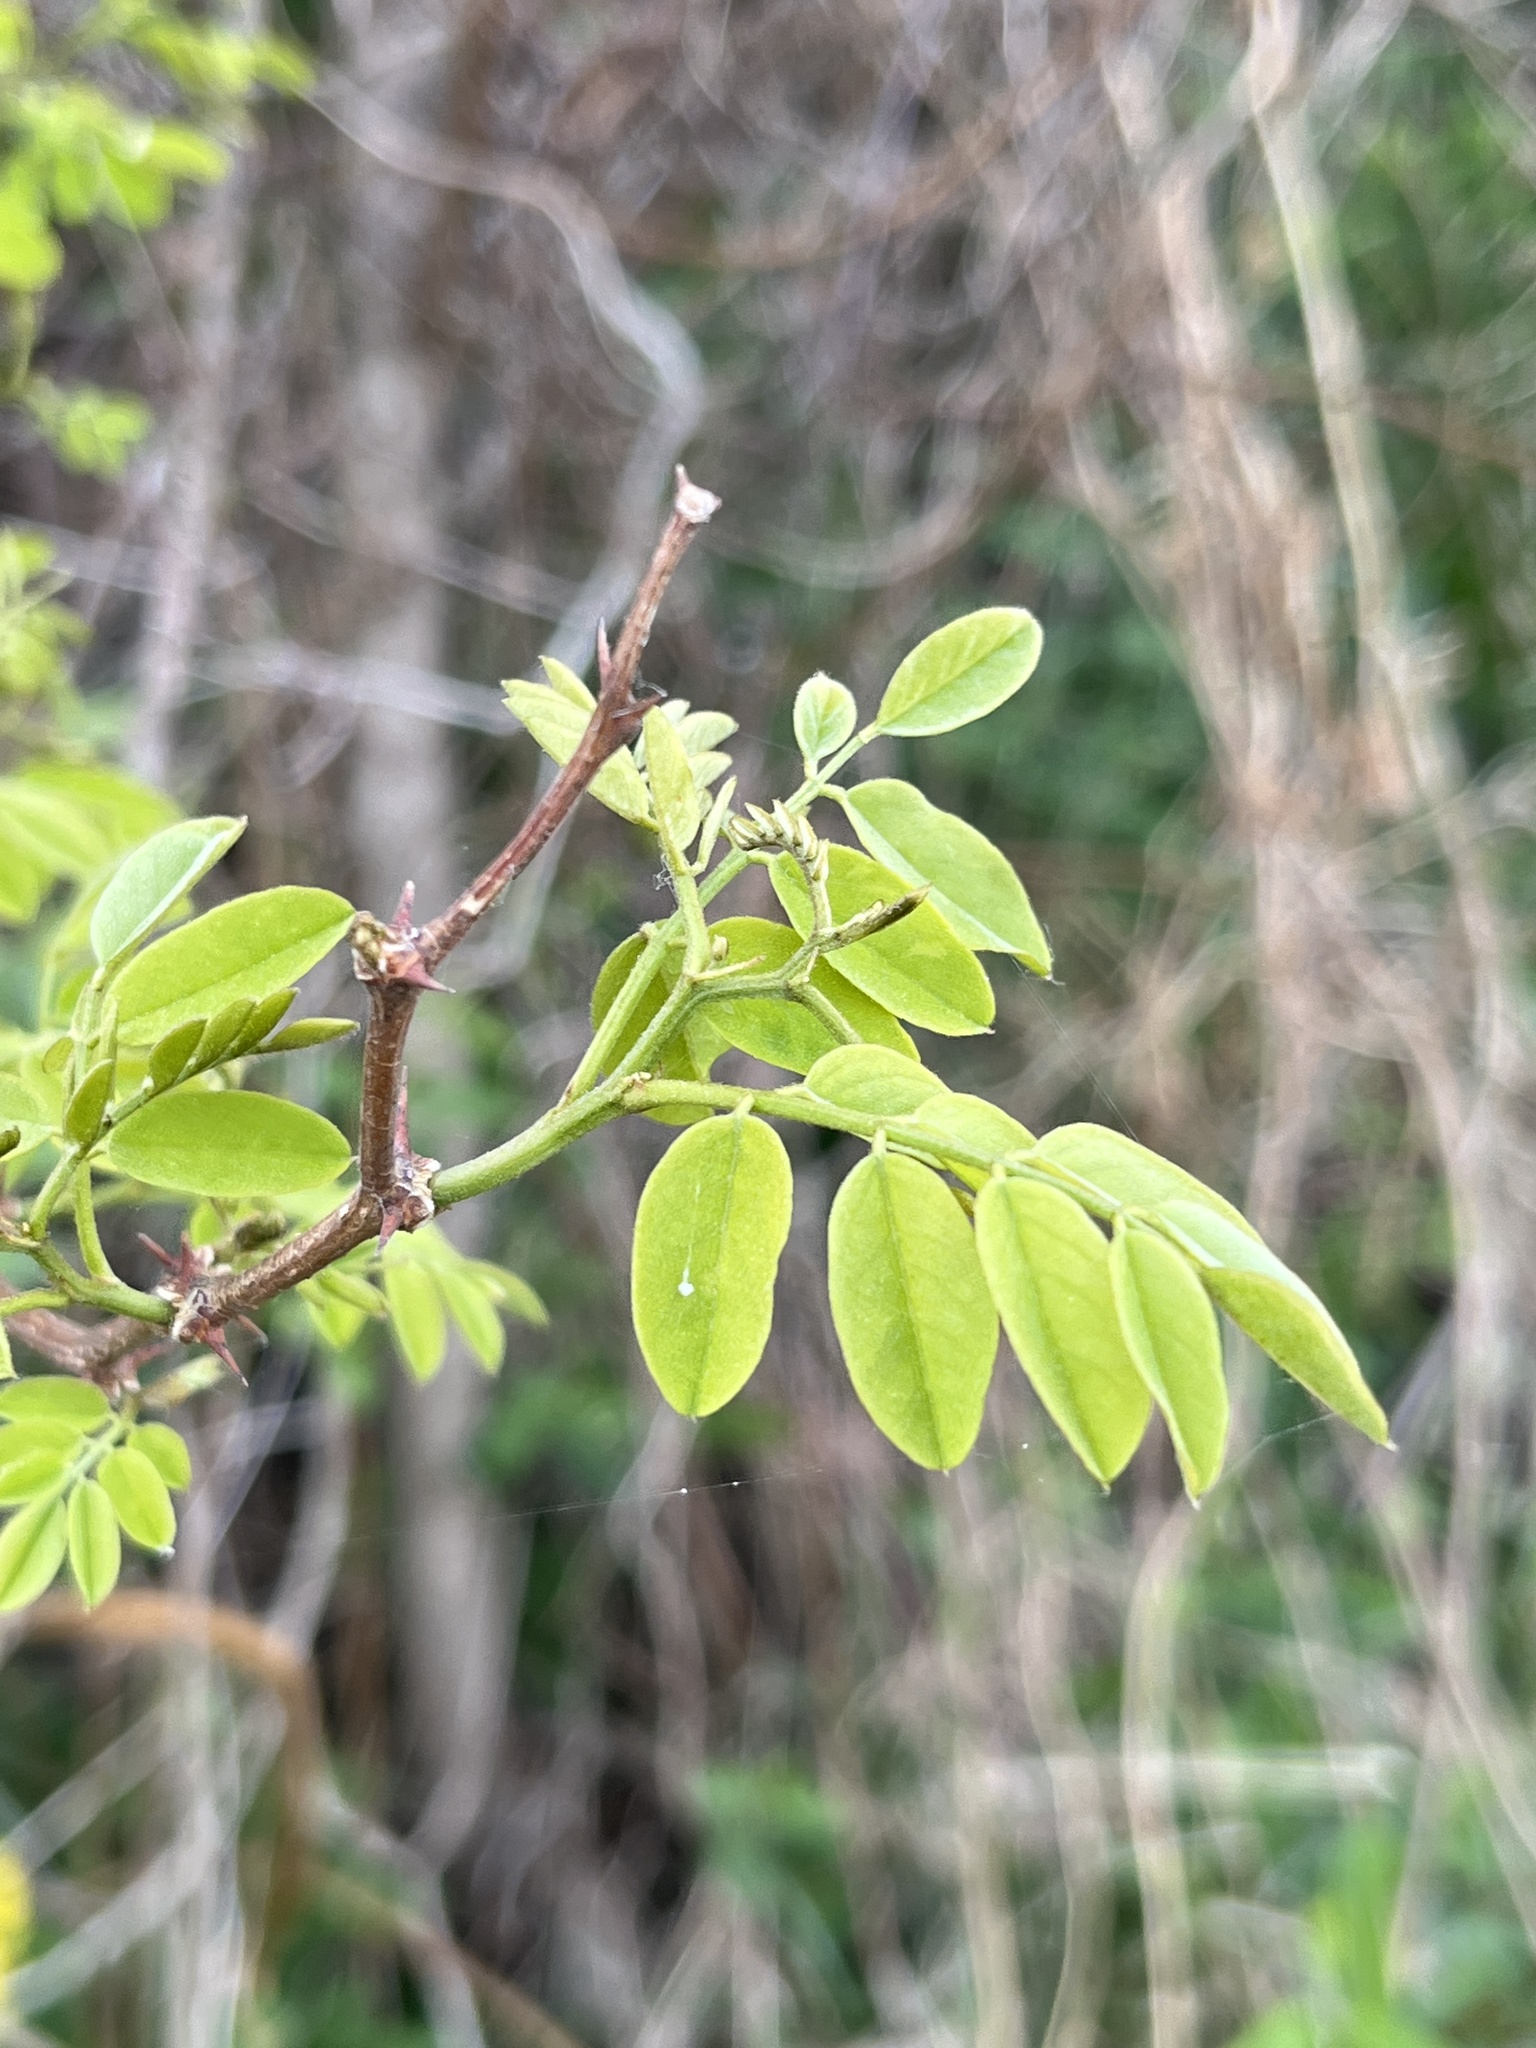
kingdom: Plantae
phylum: Tracheophyta
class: Magnoliopsida
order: Fabales
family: Fabaceae
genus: Robinia
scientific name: Robinia pseudoacacia
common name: Black locust
